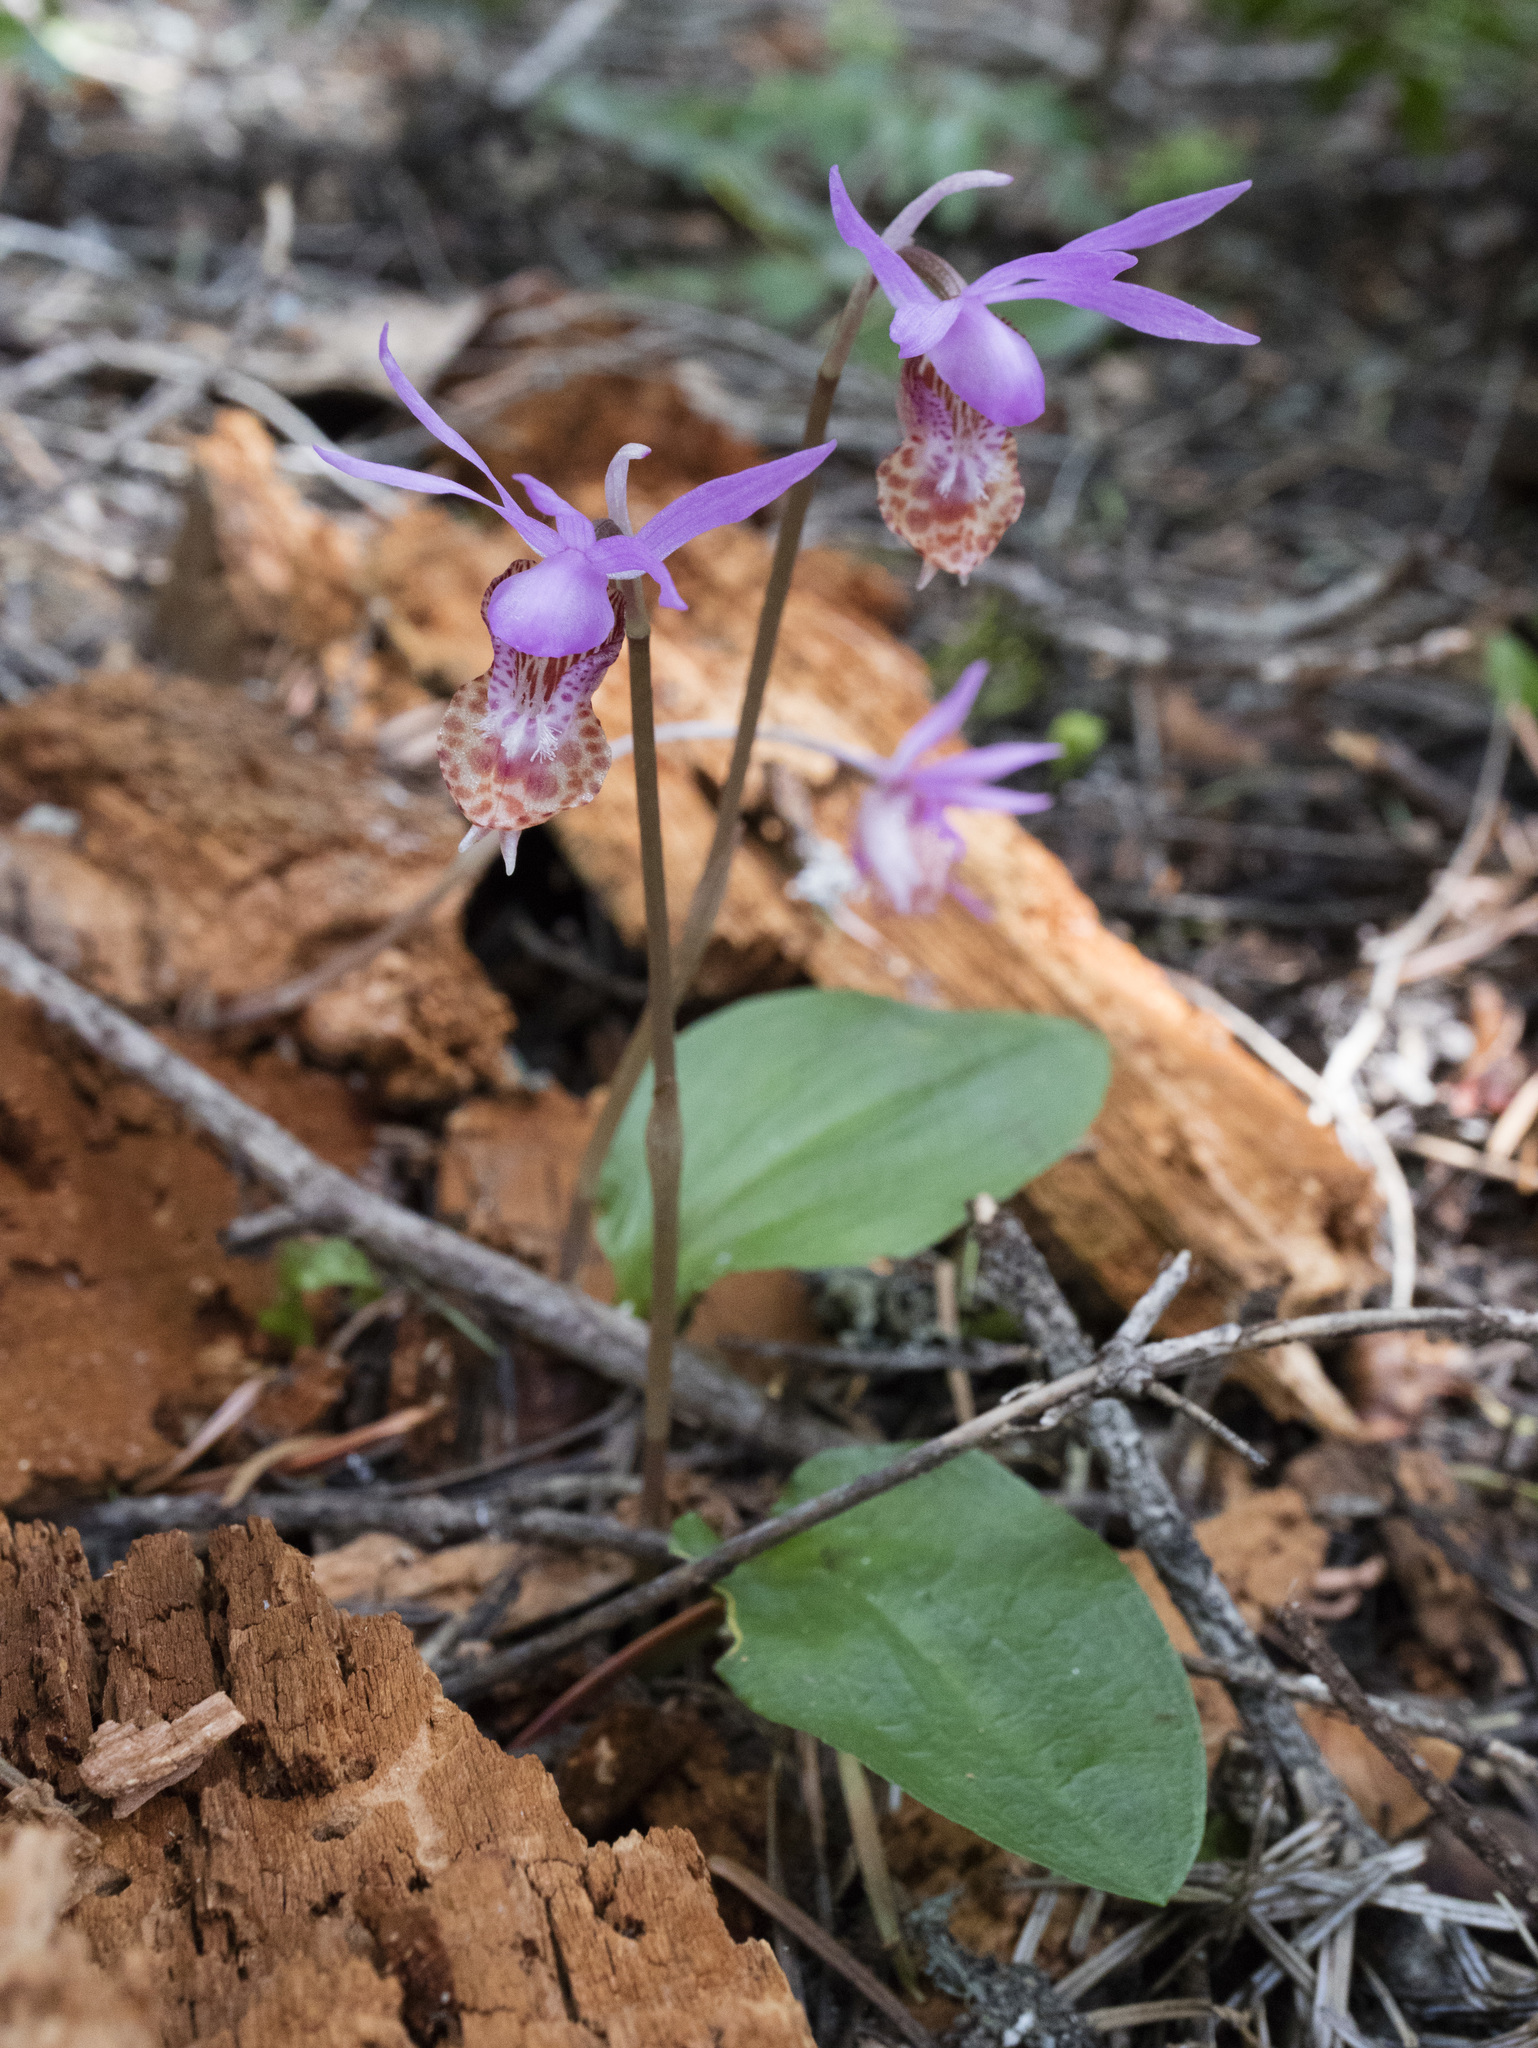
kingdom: Plantae
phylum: Tracheophyta
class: Liliopsida
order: Asparagales
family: Orchidaceae
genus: Calypso
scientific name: Calypso bulbosa
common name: Calypso
